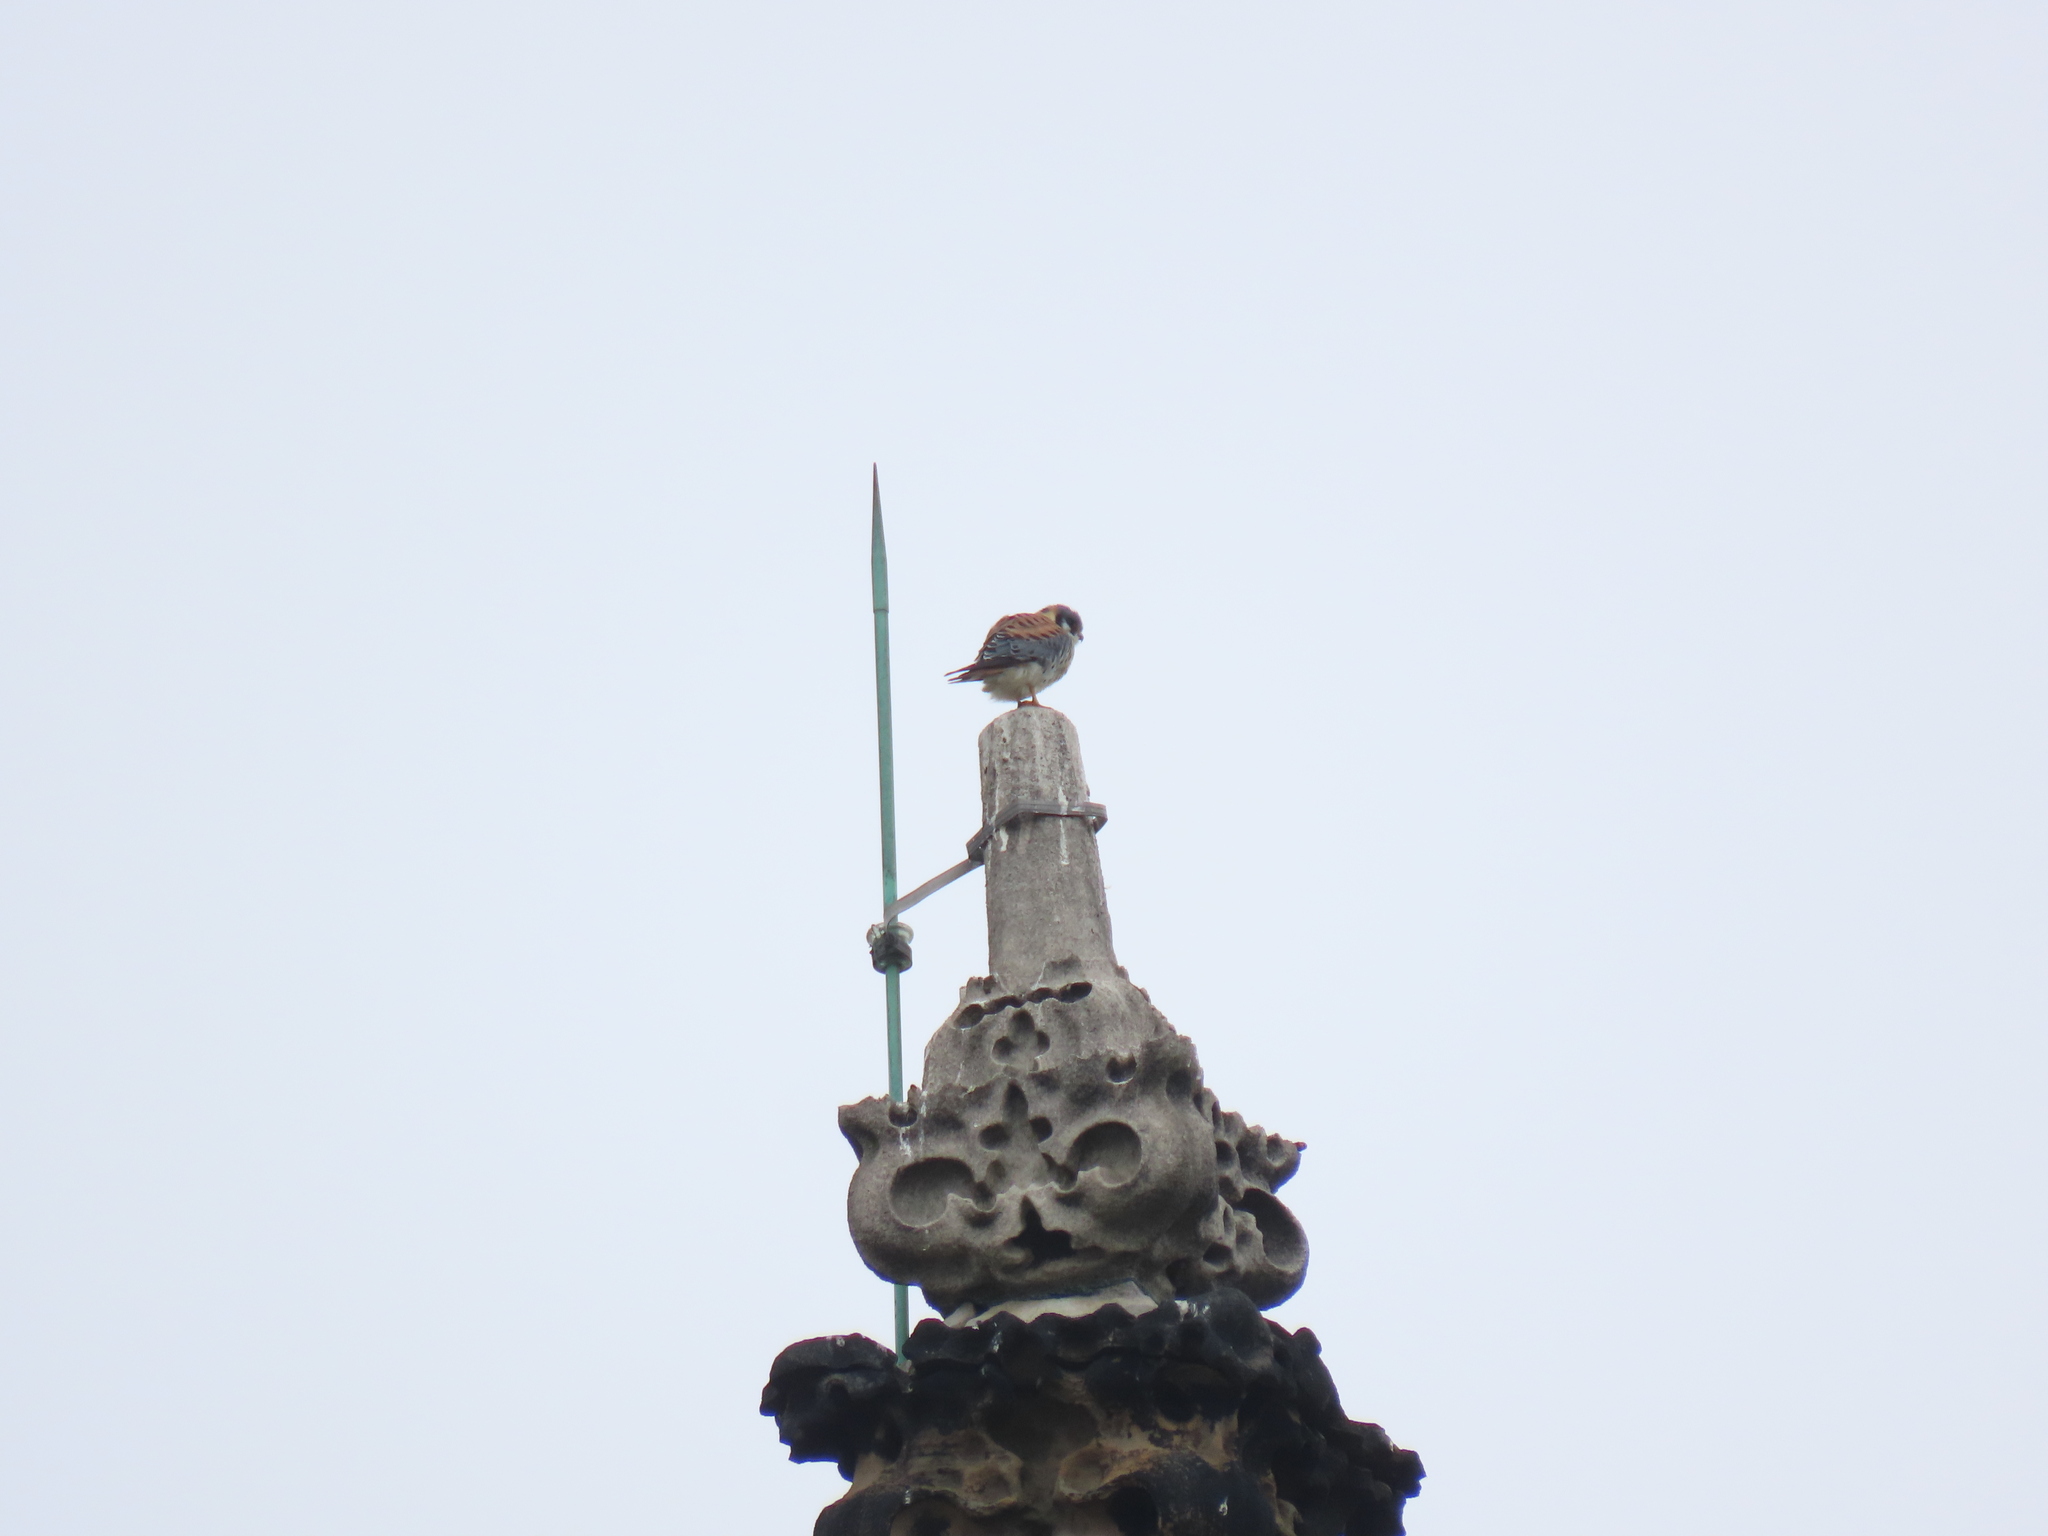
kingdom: Animalia
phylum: Chordata
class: Aves
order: Falconiformes
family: Falconidae
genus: Falco
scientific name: Falco sparverius
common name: American kestrel
